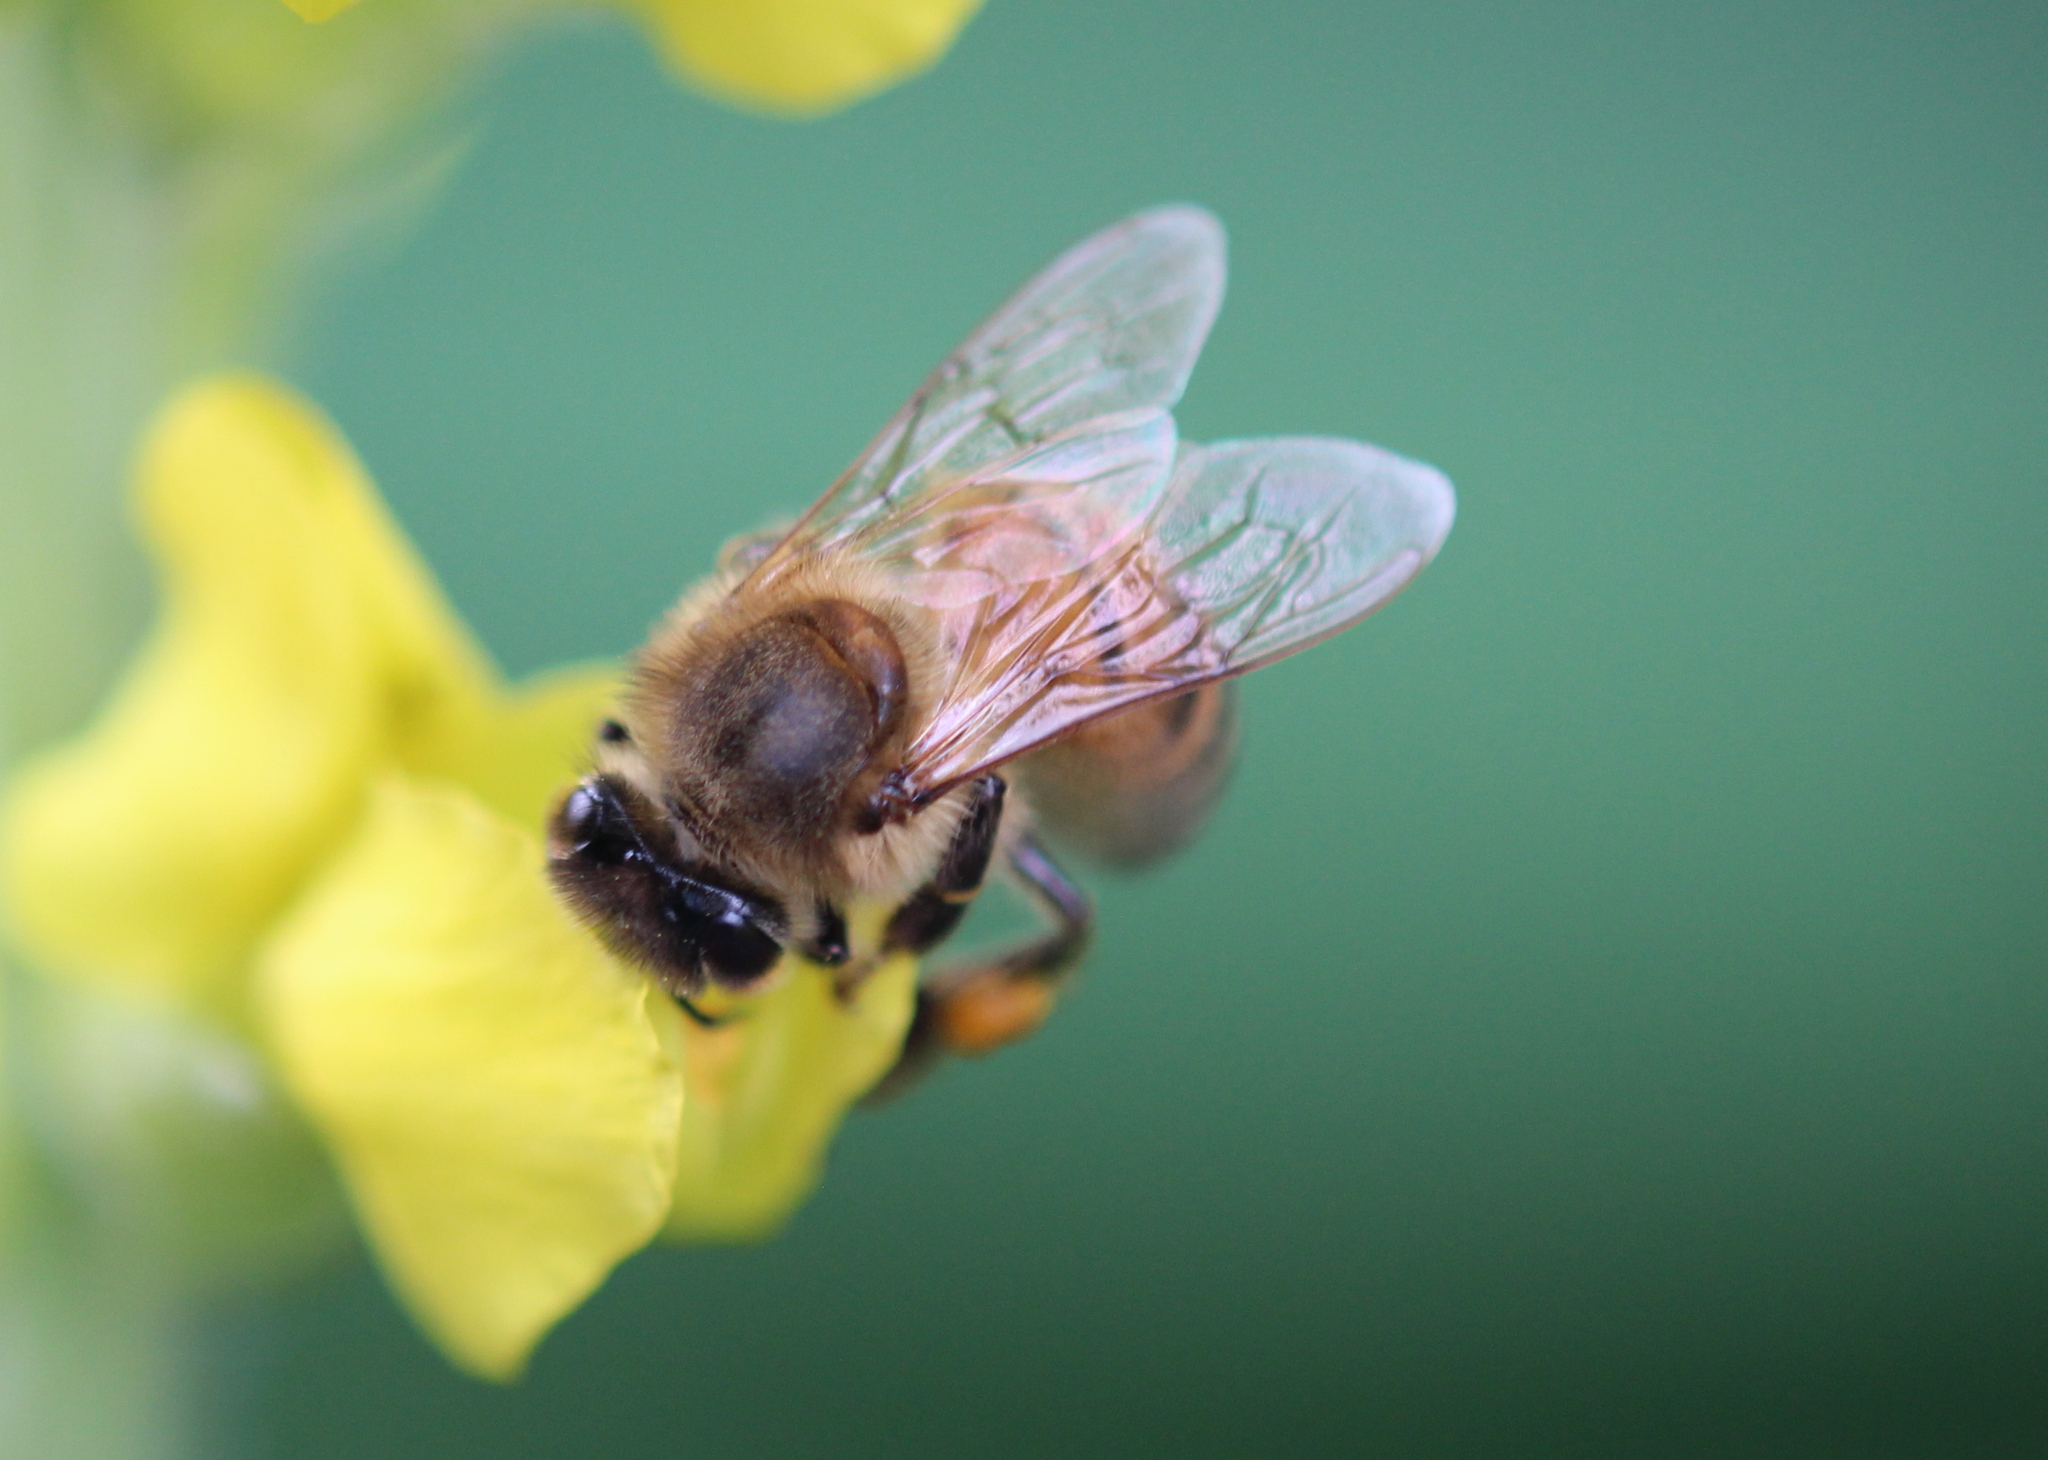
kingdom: Animalia
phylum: Arthropoda
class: Insecta
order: Hymenoptera
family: Apidae
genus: Apis
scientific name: Apis mellifera
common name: Honey bee
